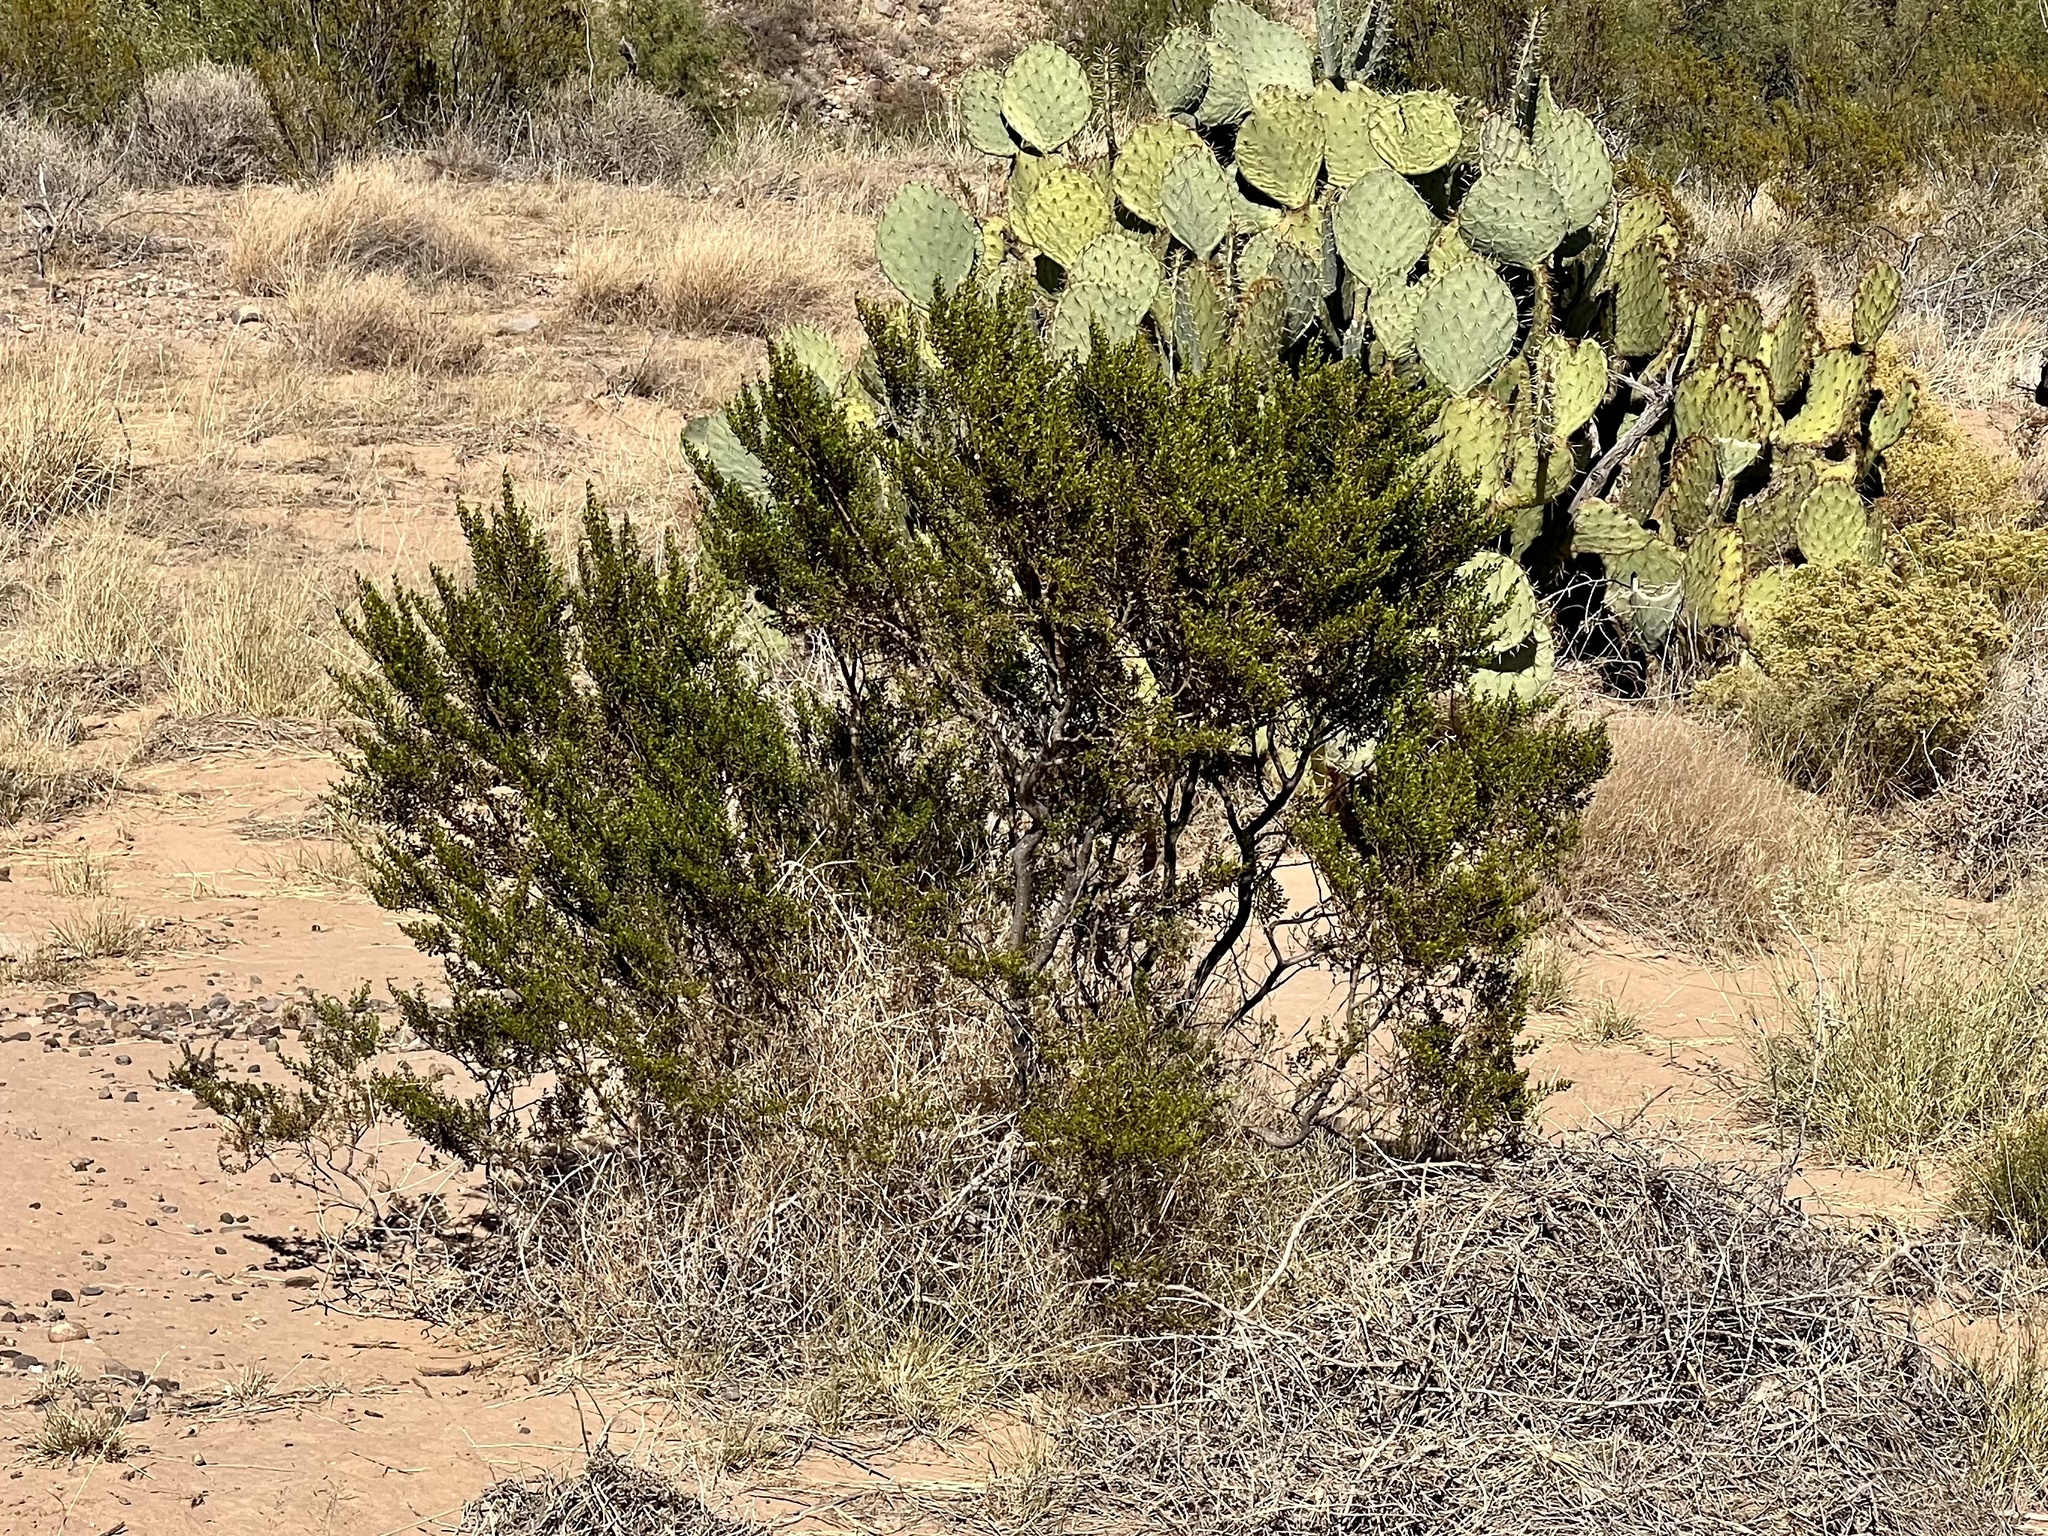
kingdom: Plantae
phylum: Tracheophyta
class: Magnoliopsida
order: Zygophyllales
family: Zygophyllaceae
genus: Larrea
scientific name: Larrea tridentata
